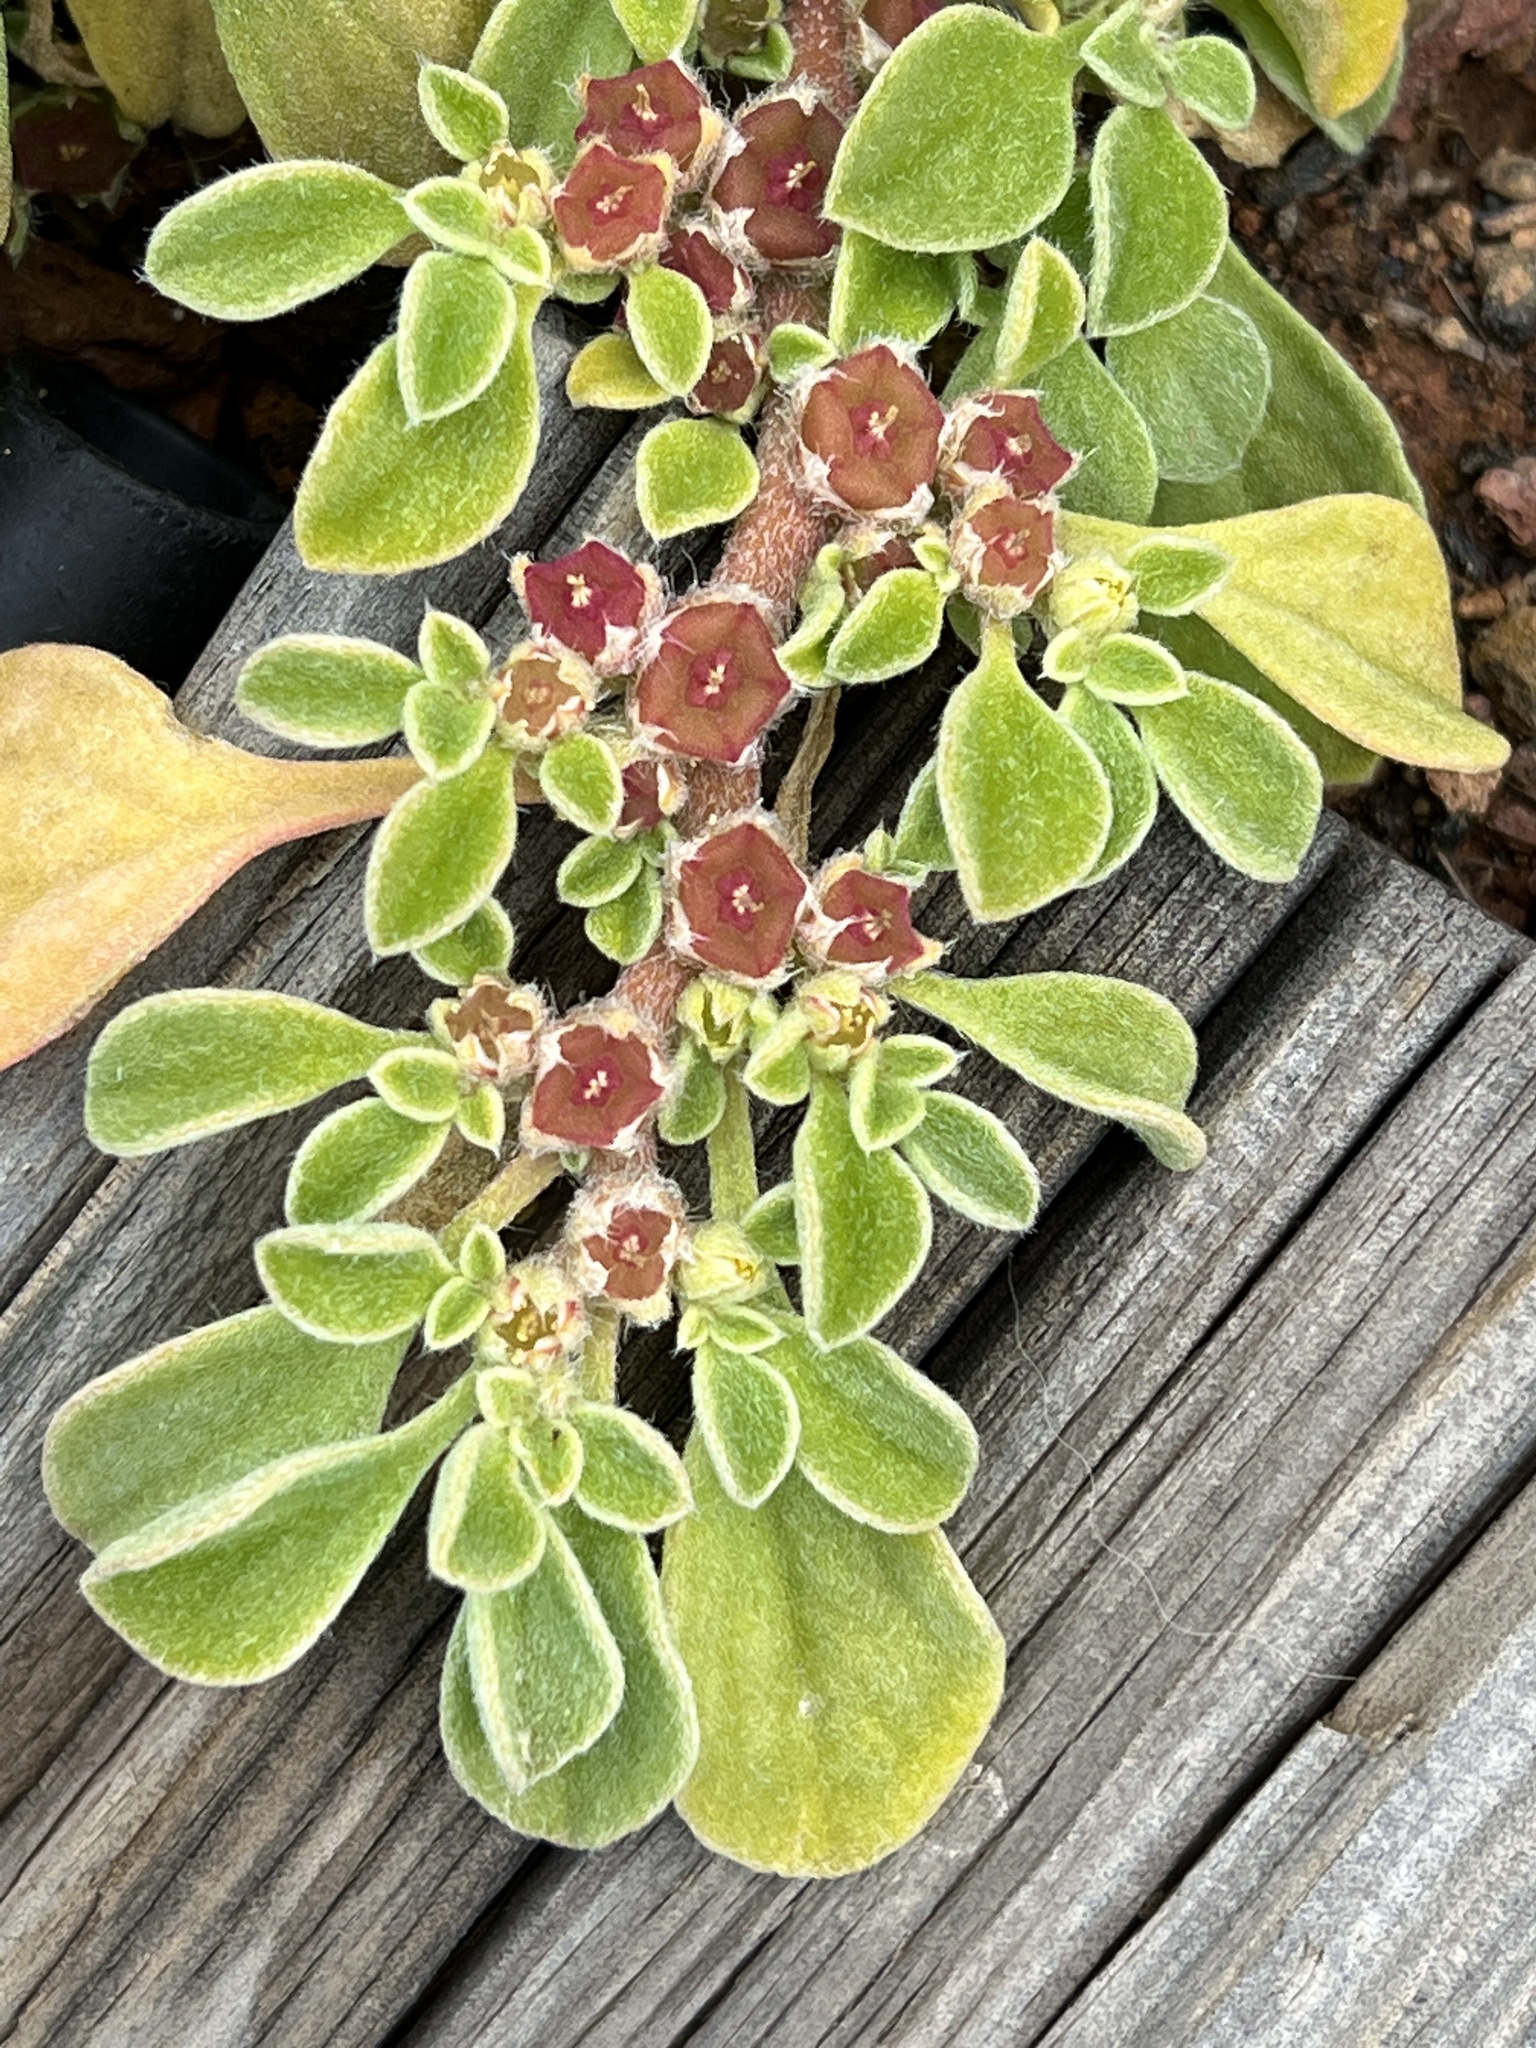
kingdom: Plantae
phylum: Tracheophyta
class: Magnoliopsida
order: Caryophyllales
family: Aizoaceae
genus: Aizoon
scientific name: Aizoon canariense
